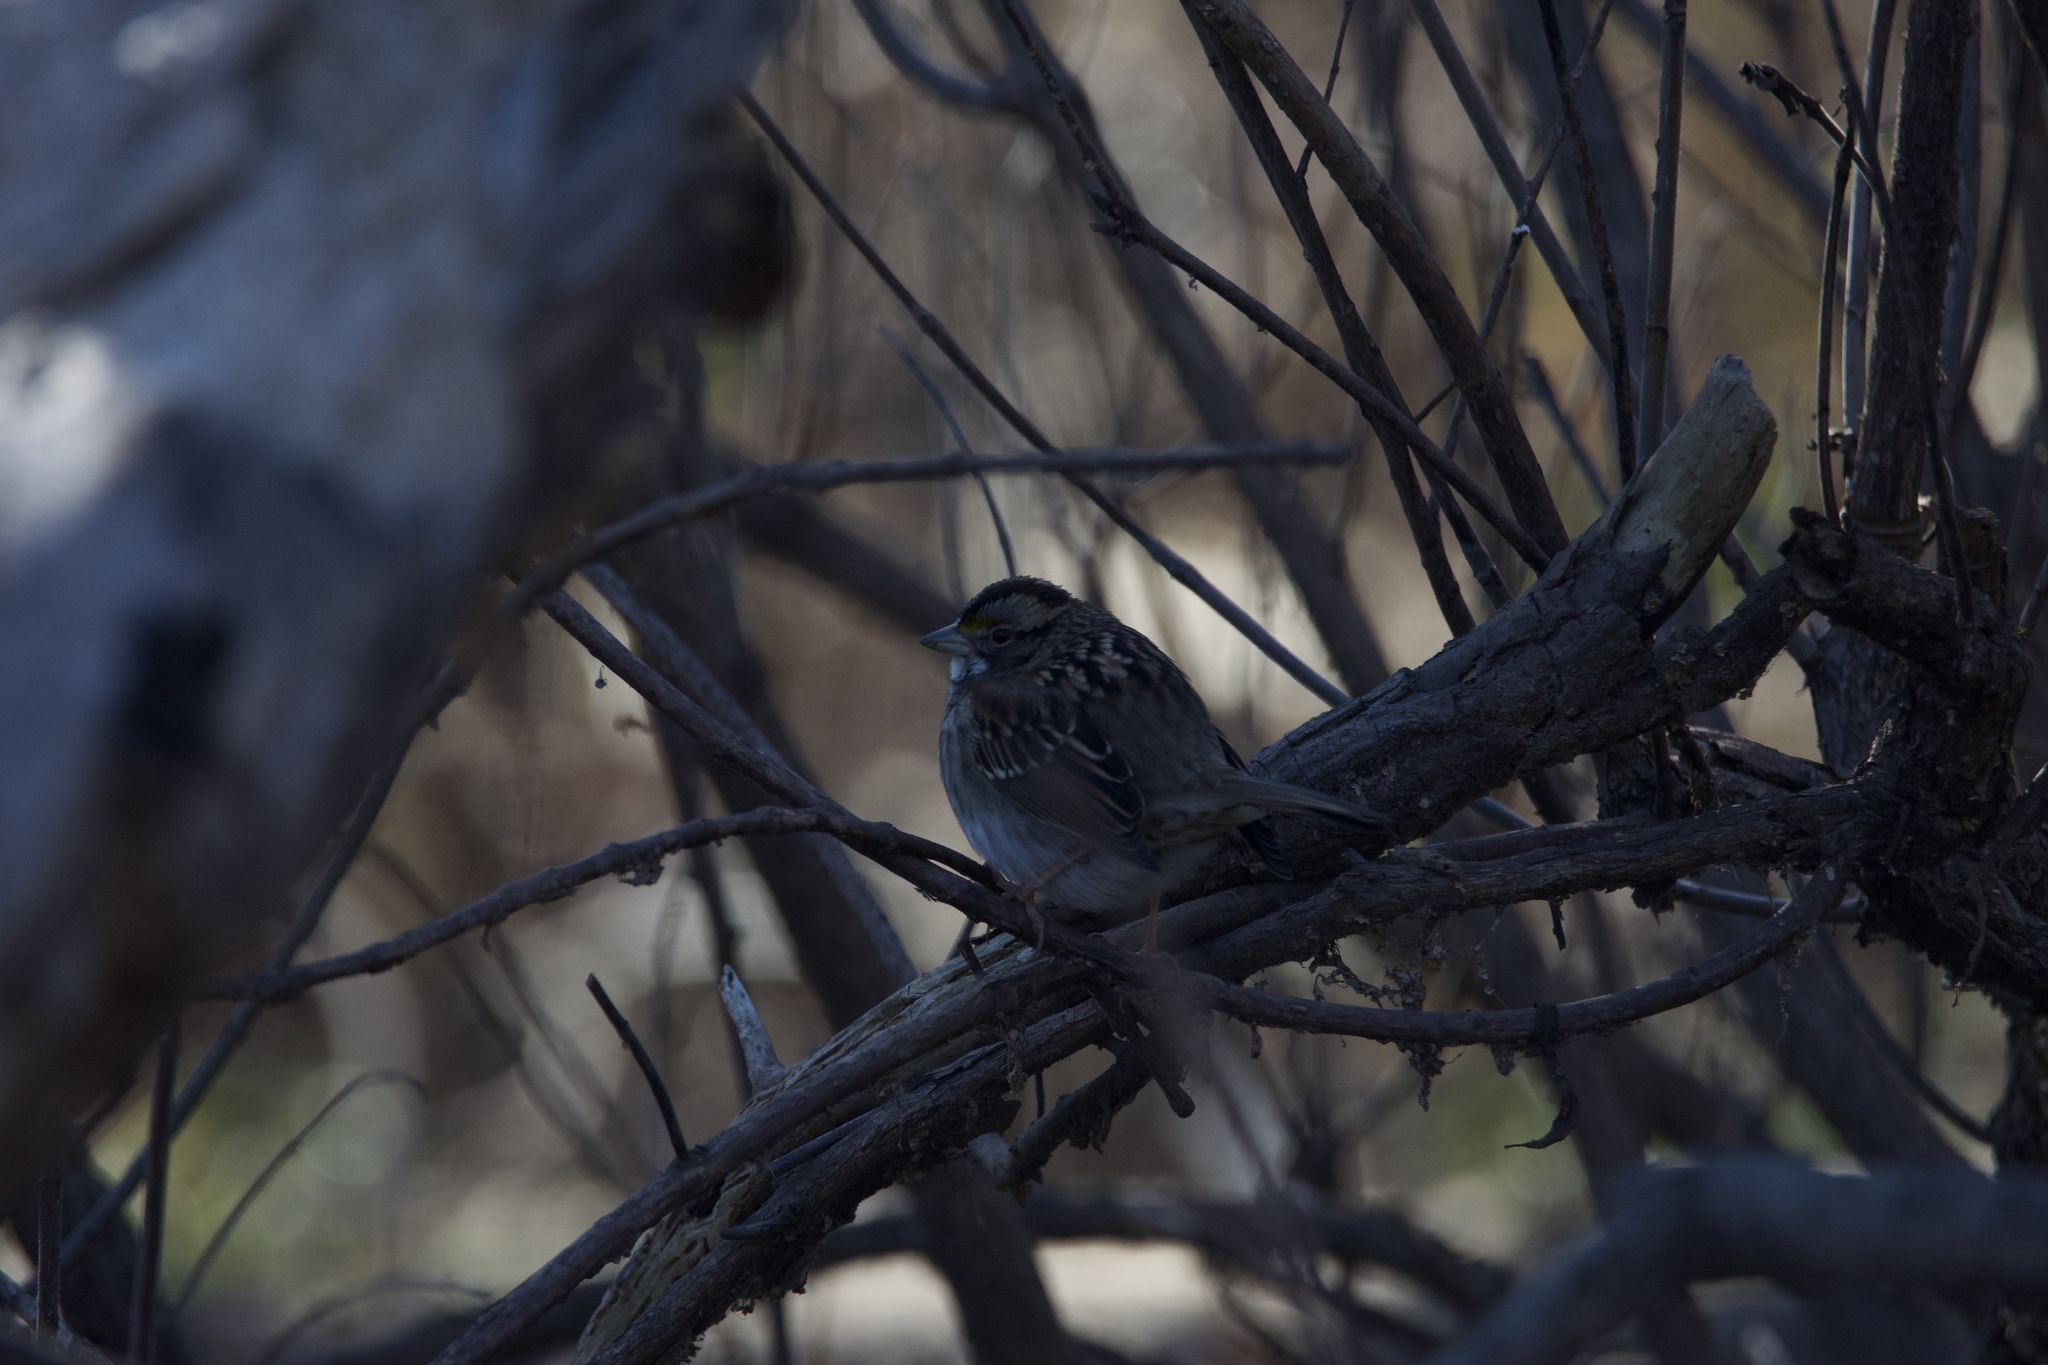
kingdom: Animalia
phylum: Chordata
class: Aves
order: Passeriformes
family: Passerellidae
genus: Zonotrichia
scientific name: Zonotrichia albicollis
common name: White-throated sparrow
